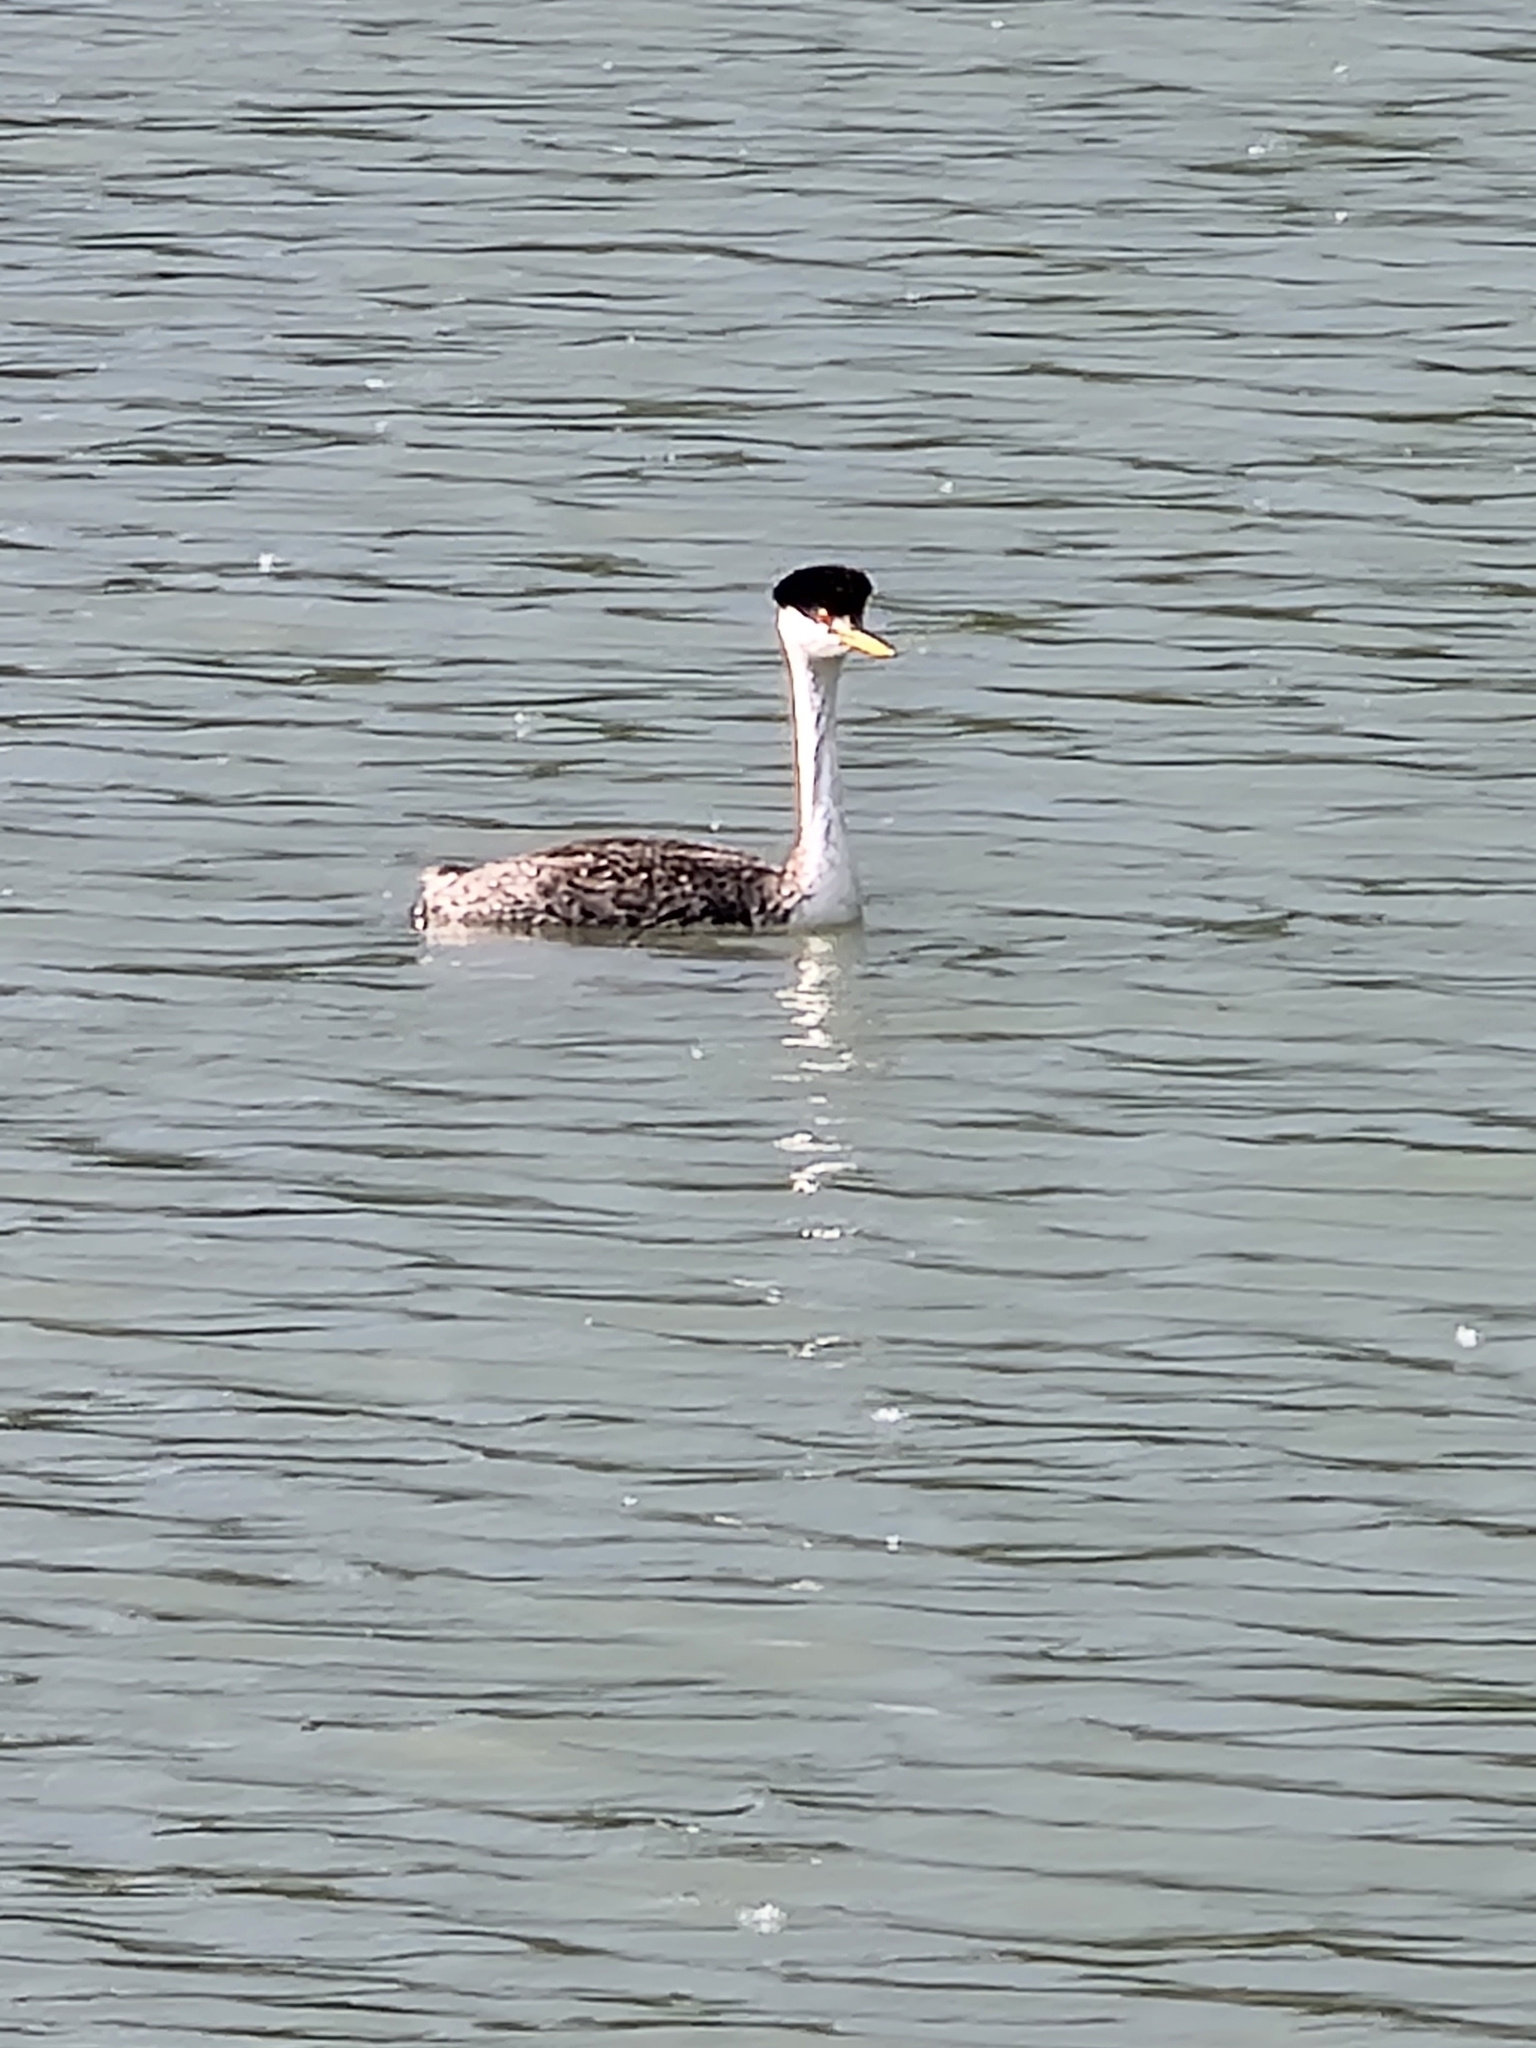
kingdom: Animalia
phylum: Chordata
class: Aves
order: Podicipediformes
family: Podicipedidae
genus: Aechmophorus
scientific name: Aechmophorus occidentalis
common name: Western grebe
